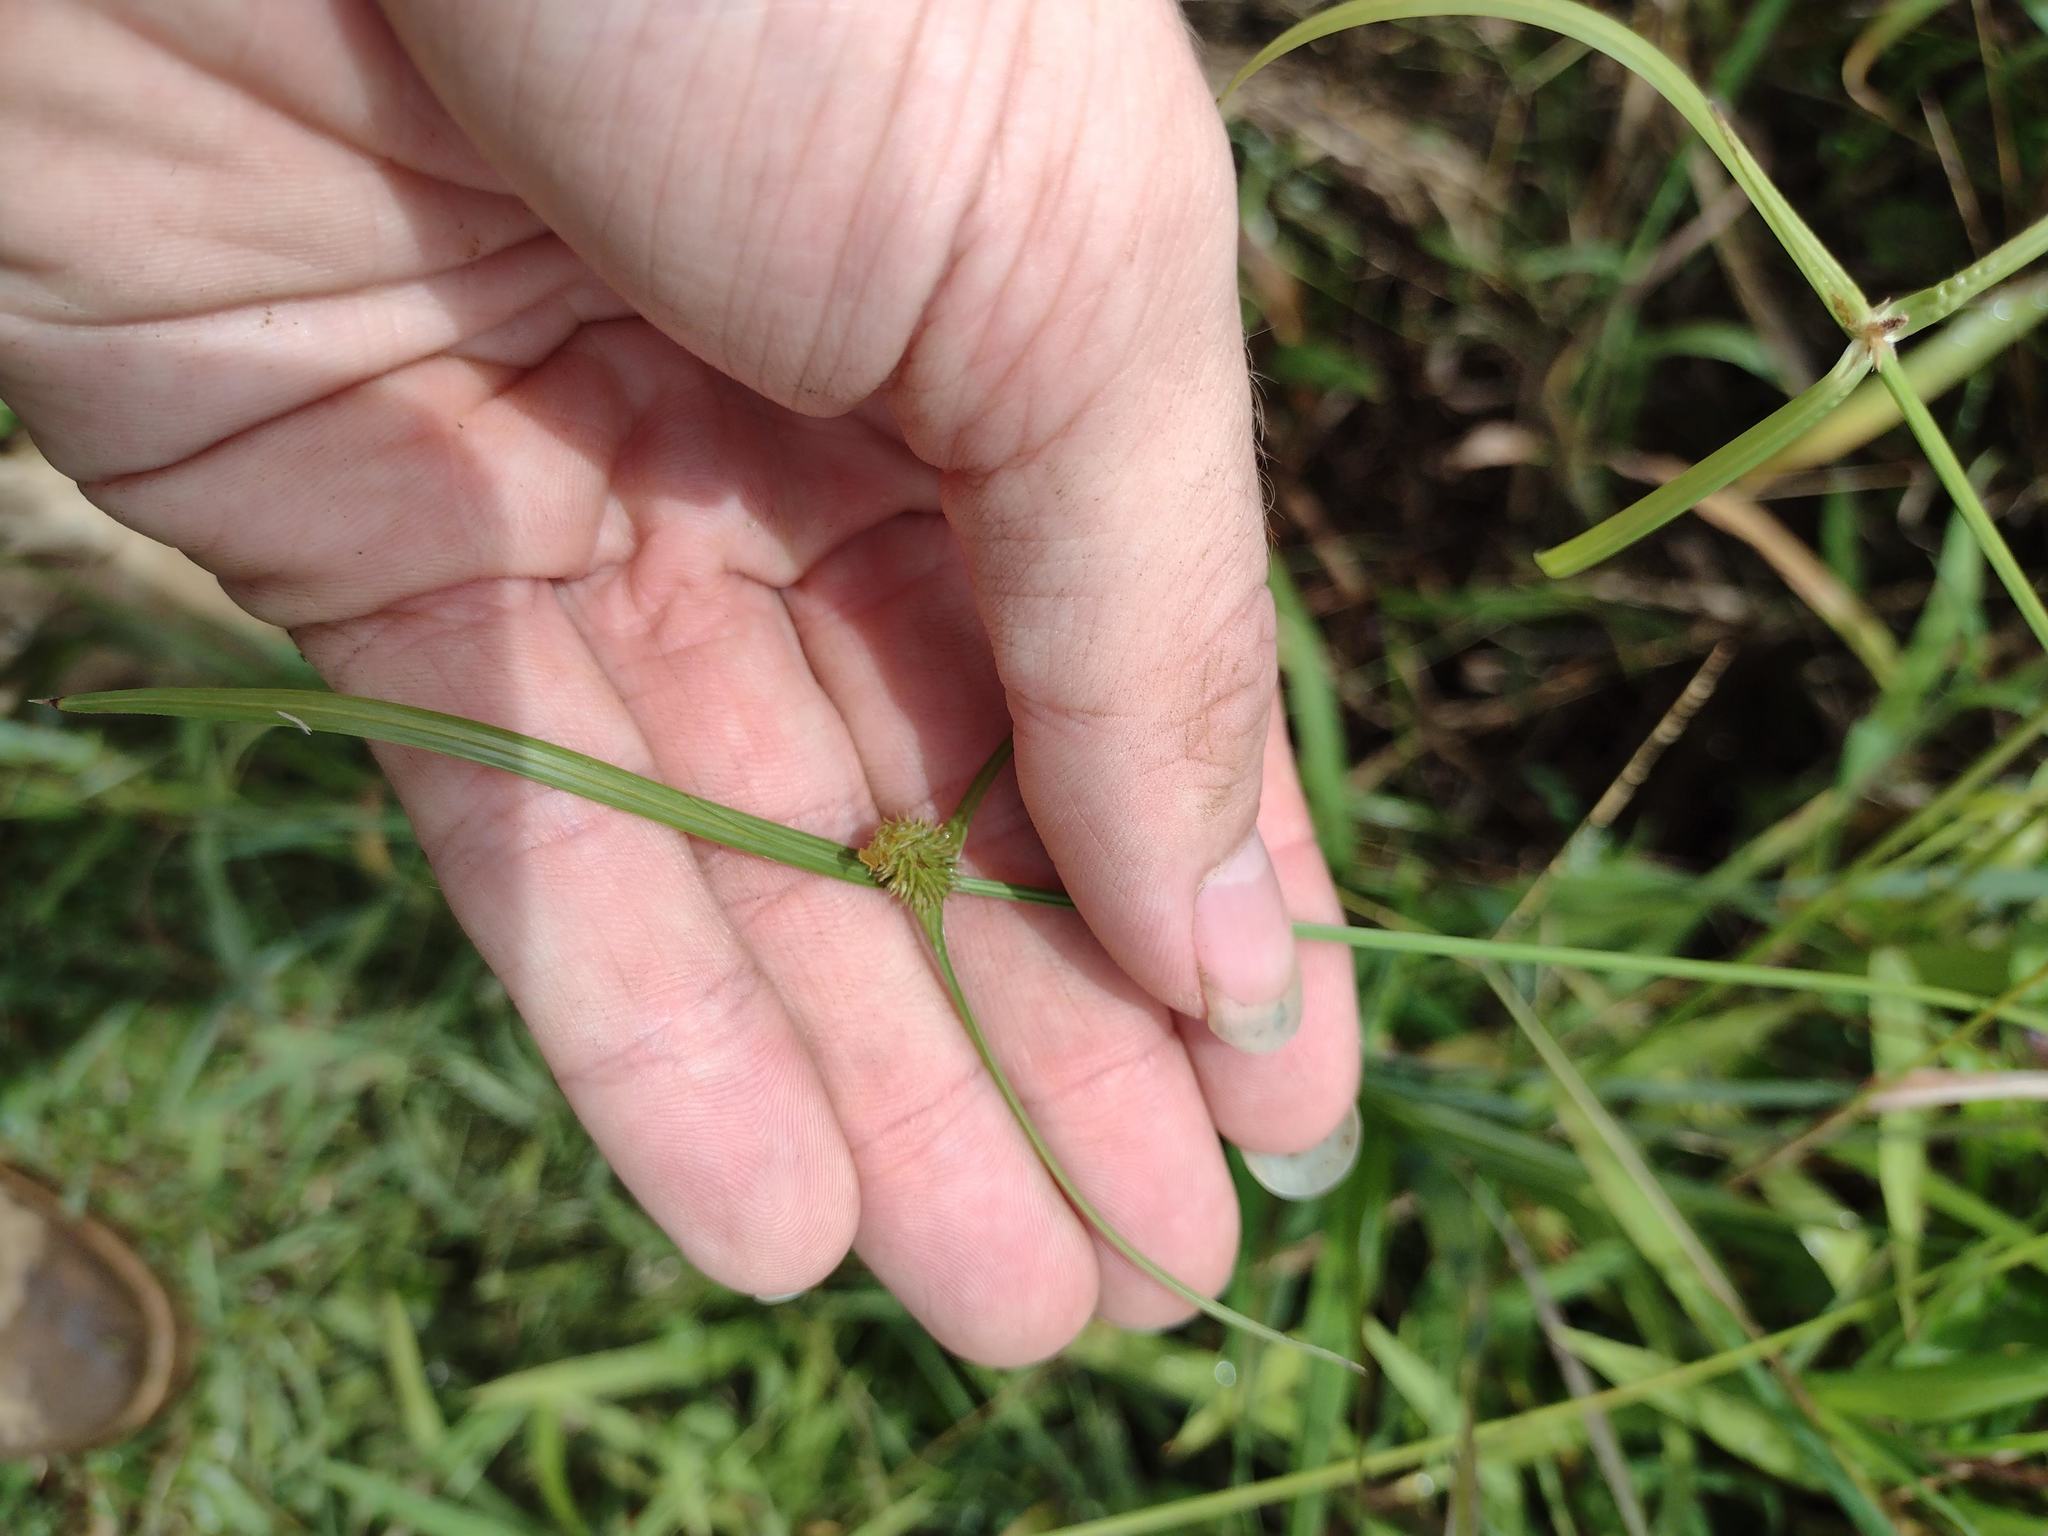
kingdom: Plantae
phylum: Tracheophyta
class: Liliopsida
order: Poales
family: Cyperaceae
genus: Cyperus
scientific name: Cyperus brevifolius
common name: Globe kyllinga
